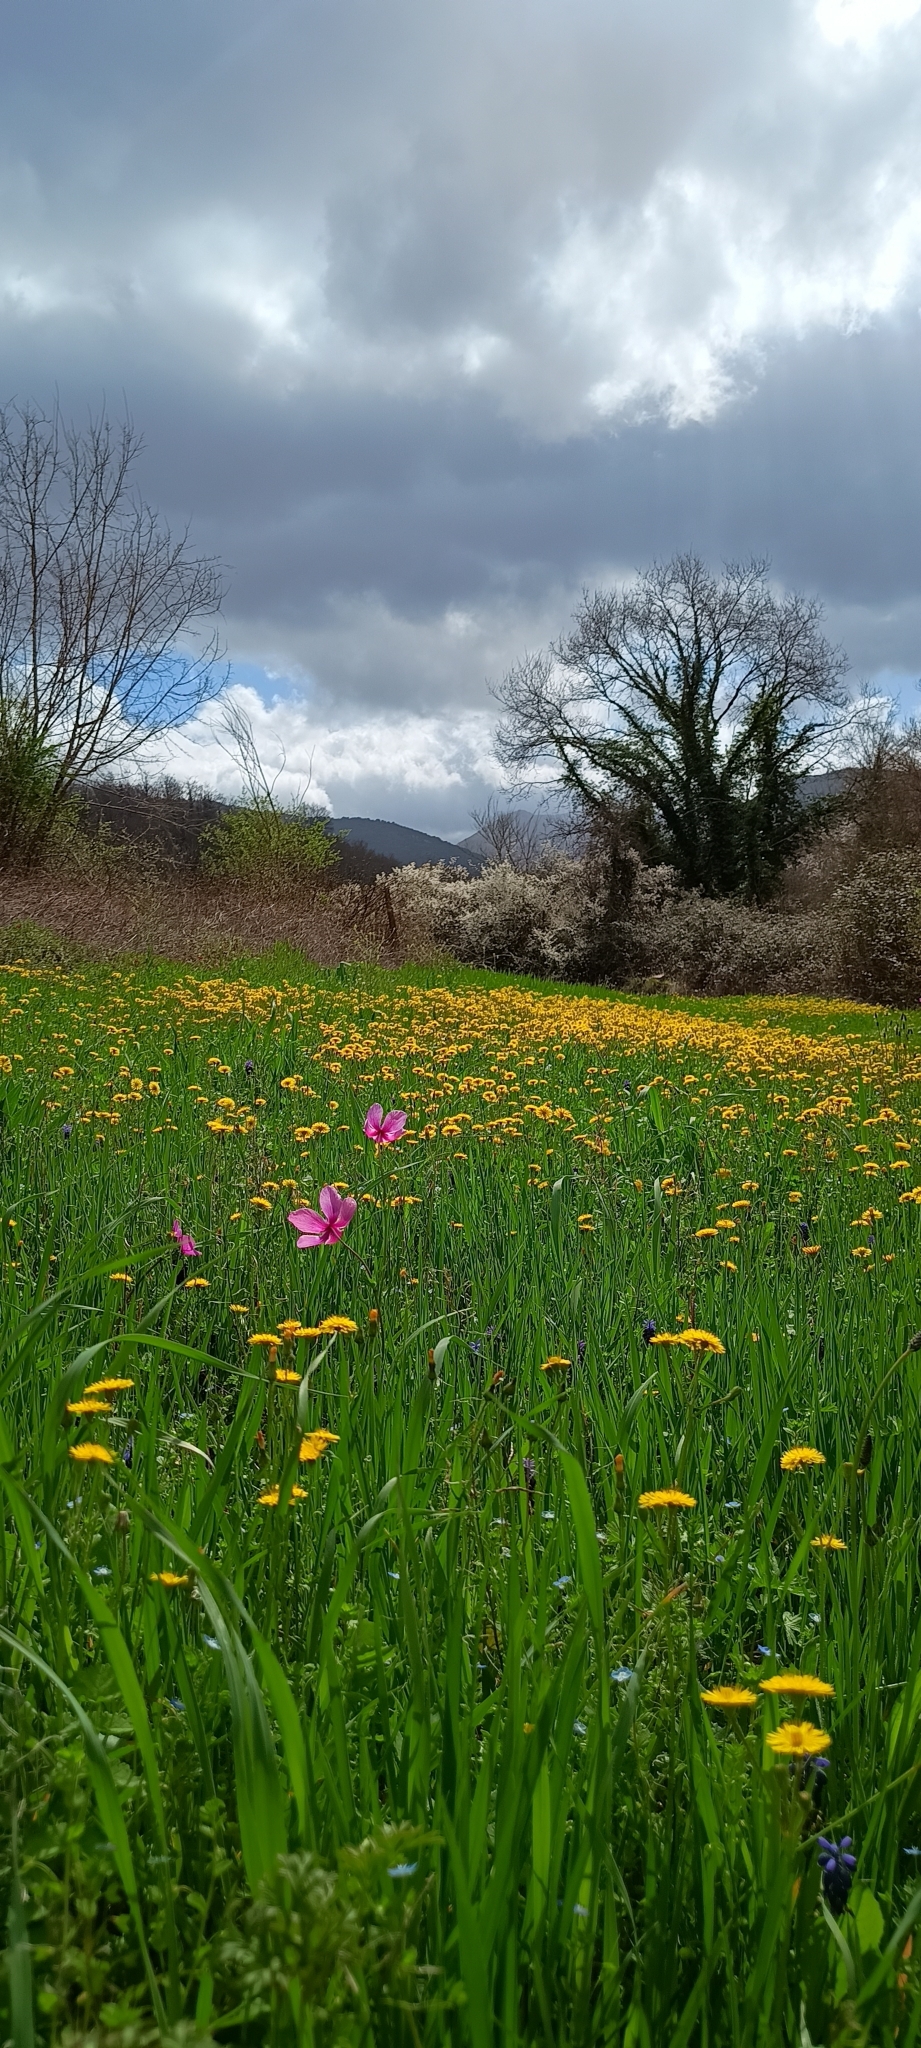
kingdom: Plantae
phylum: Tracheophyta
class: Magnoliopsida
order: Ranunculales
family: Ranunculaceae
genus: Anemone
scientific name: Anemone coronaria
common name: Poppy anemone
